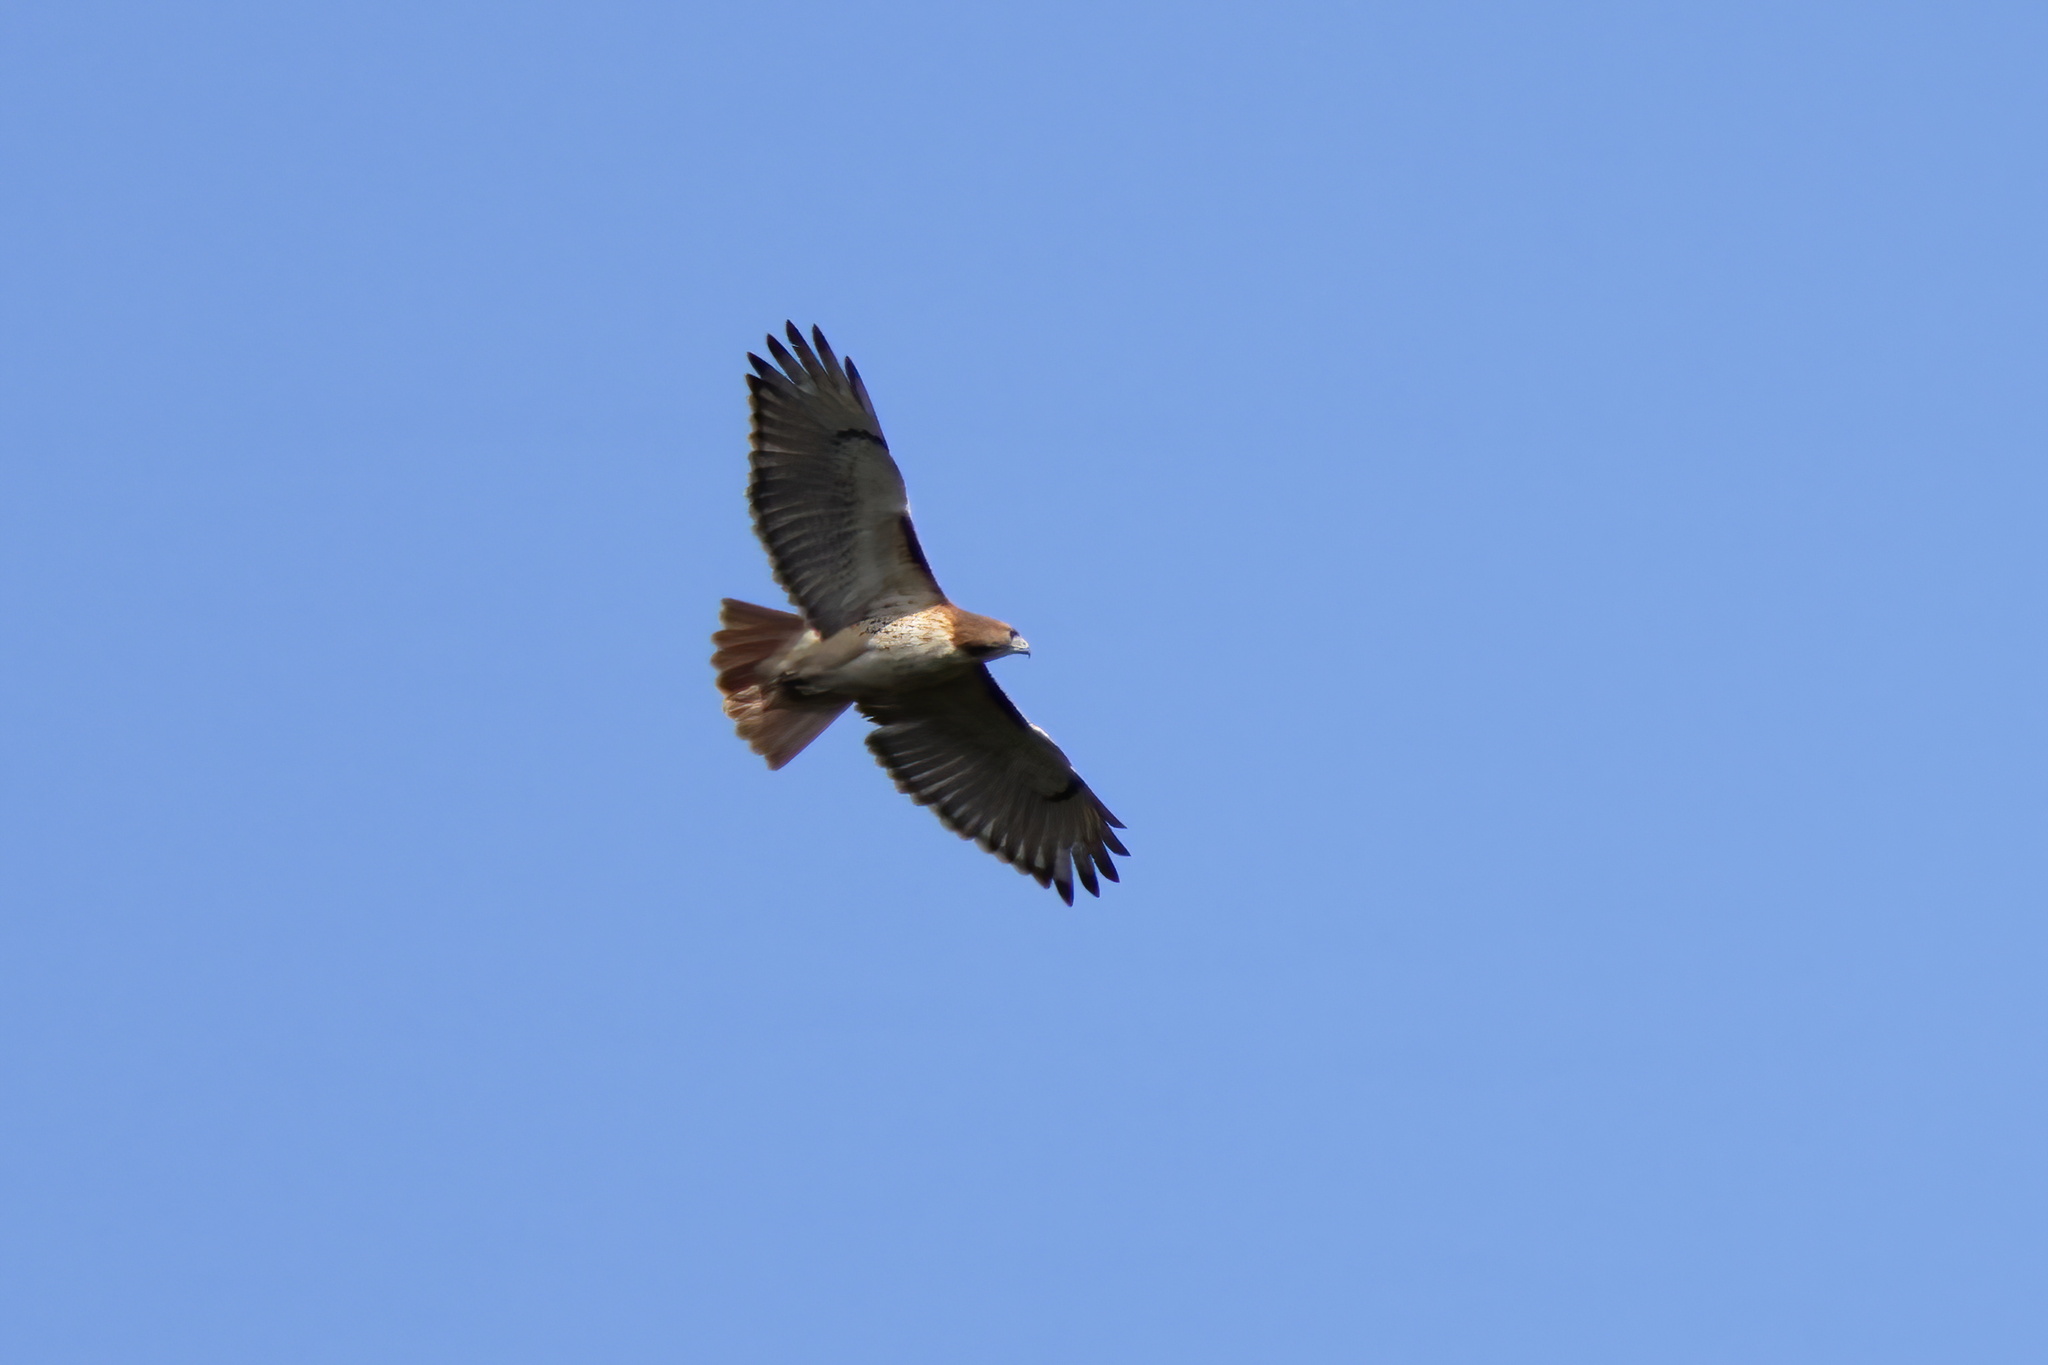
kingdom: Animalia
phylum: Chordata
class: Aves
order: Accipitriformes
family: Accipitridae
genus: Buteo
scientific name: Buteo jamaicensis
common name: Red-tailed hawk
